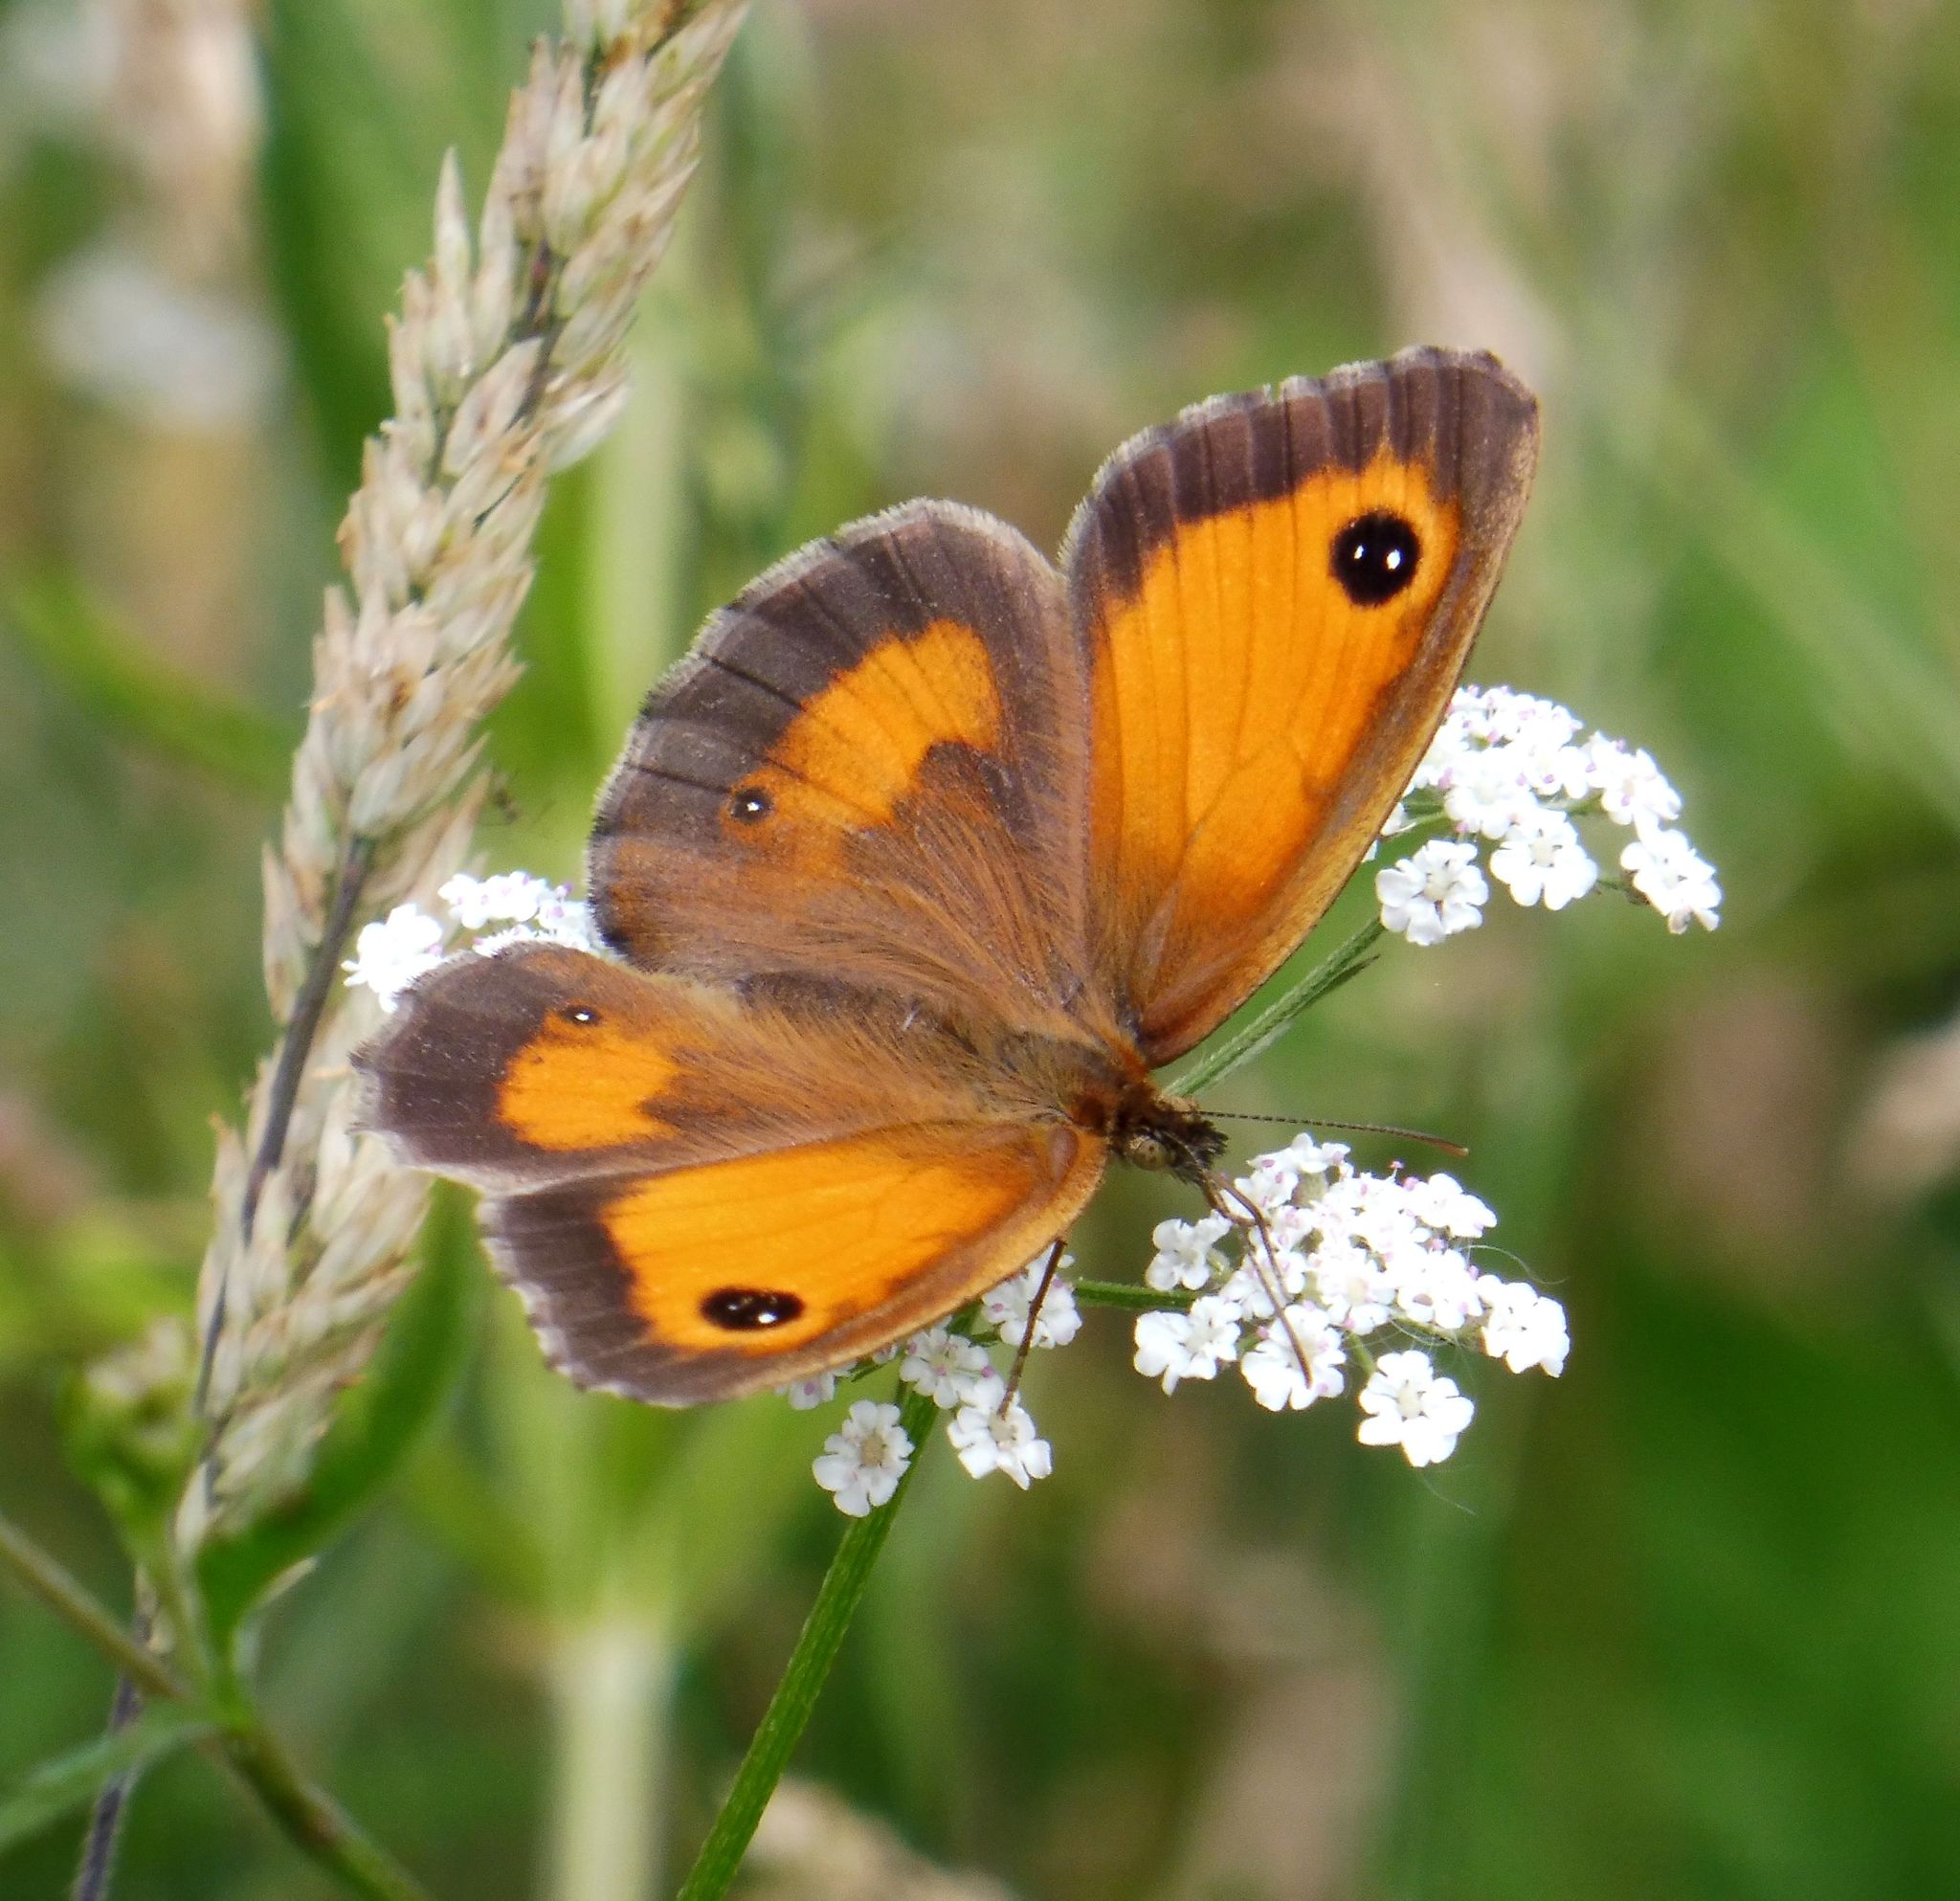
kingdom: Animalia
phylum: Arthropoda
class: Insecta
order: Lepidoptera
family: Nymphalidae
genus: Pyronia
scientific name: Pyronia tithonus
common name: Gatekeeper
